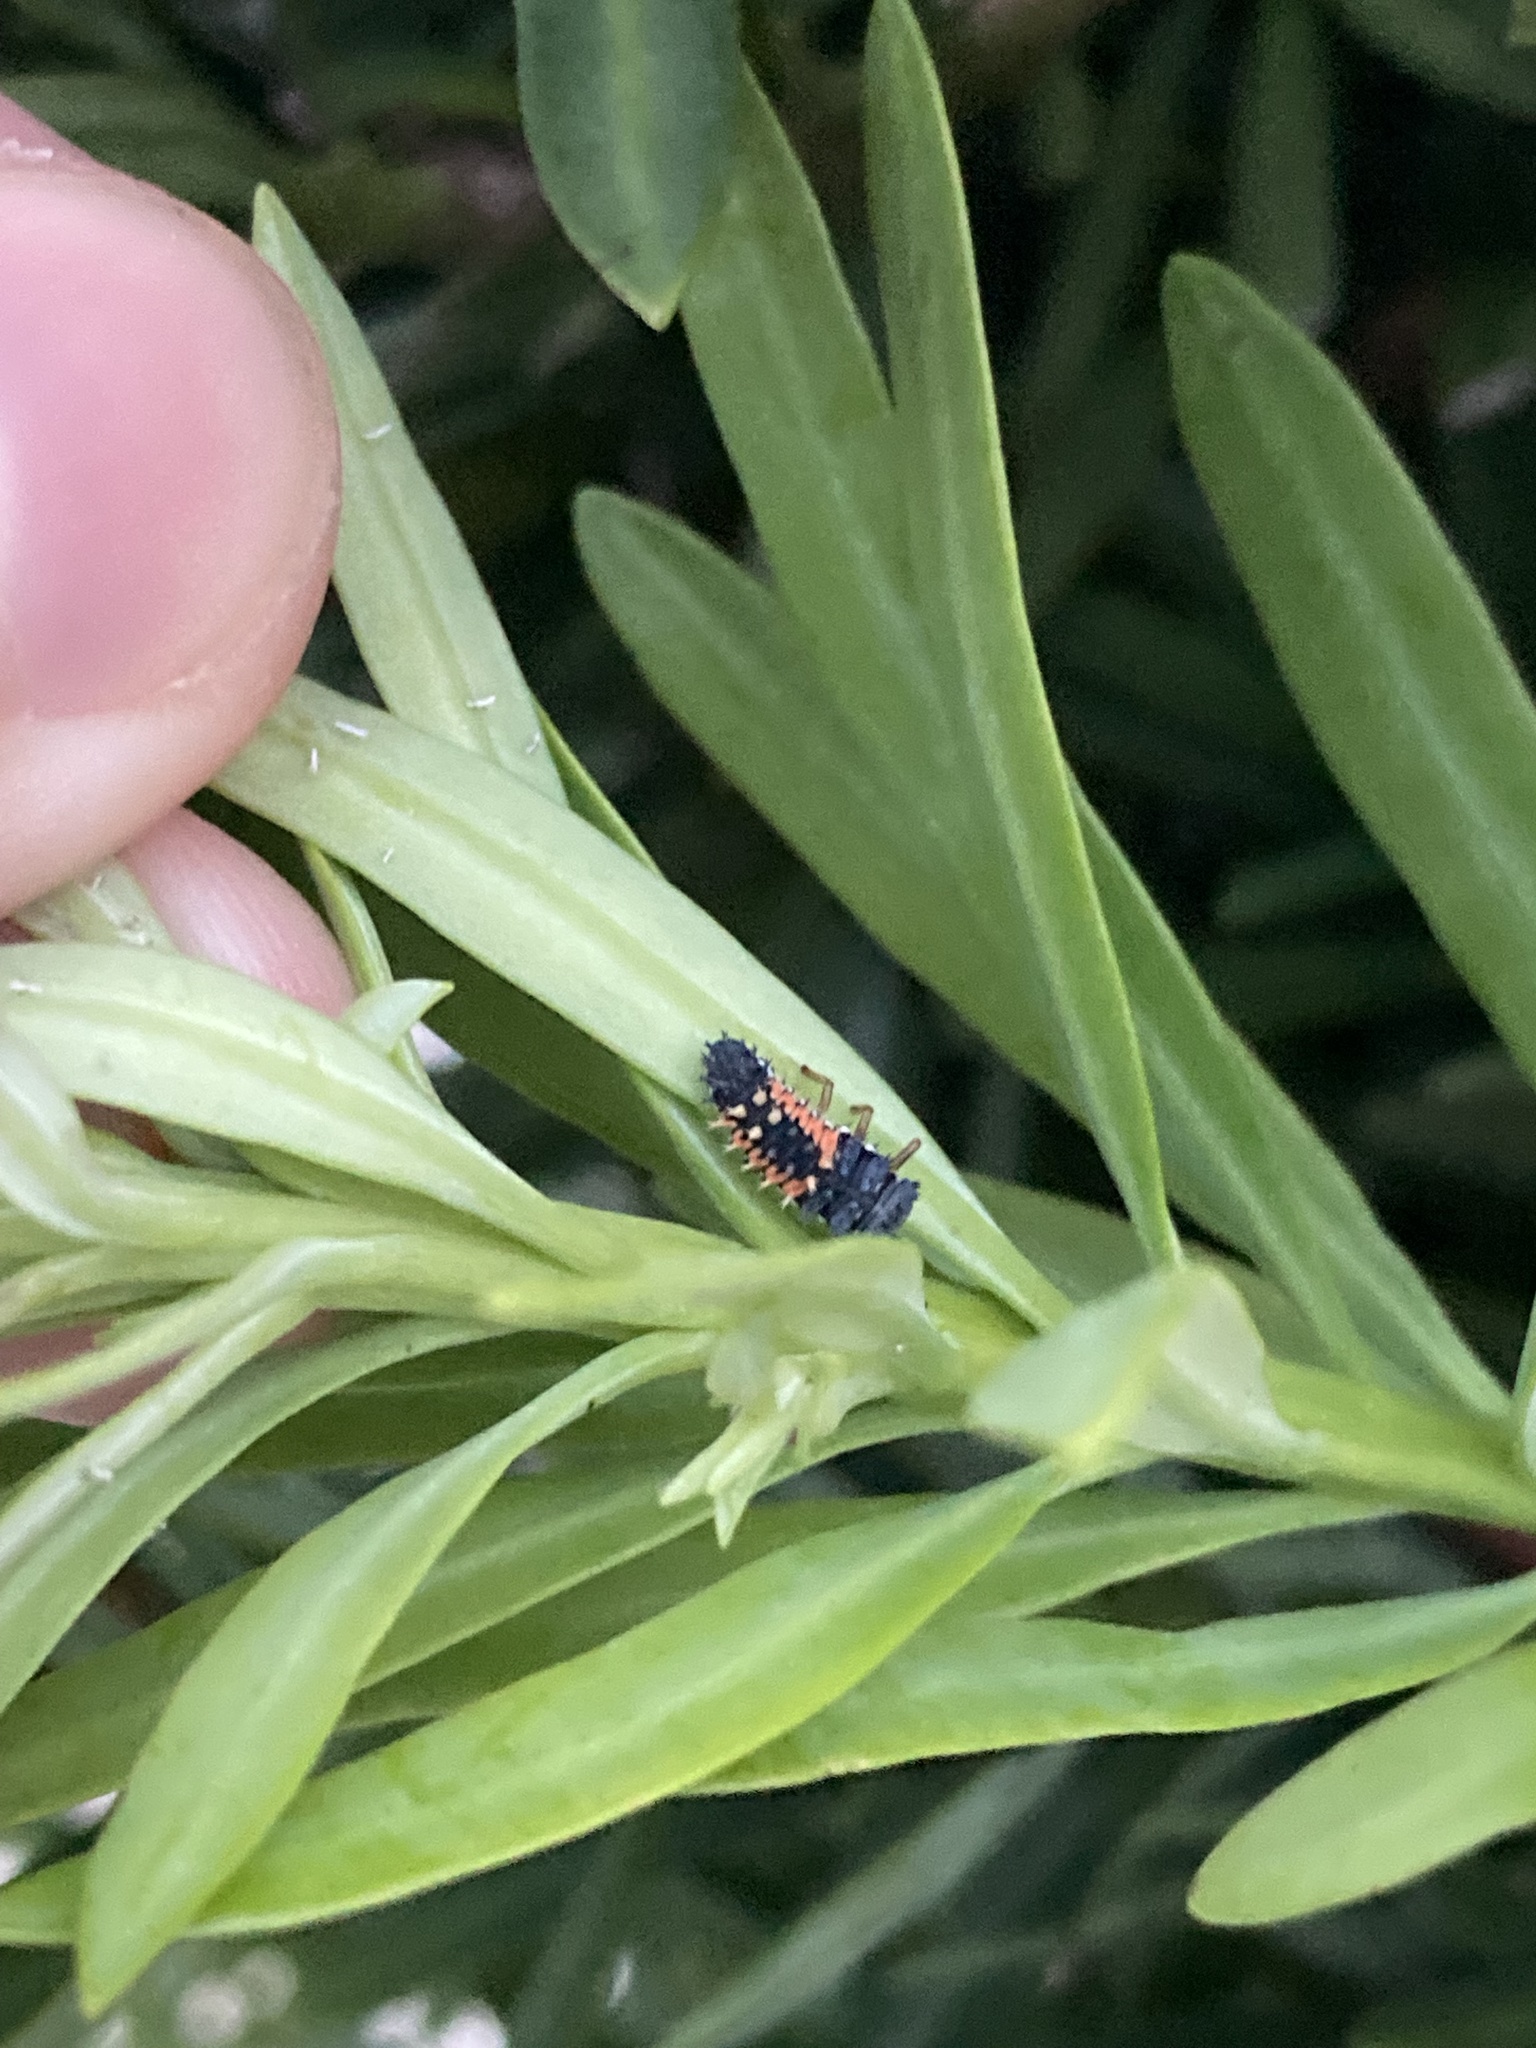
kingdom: Animalia
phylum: Arthropoda
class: Insecta
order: Coleoptera
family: Coccinellidae
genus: Harmonia
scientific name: Harmonia axyridis
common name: Harlequin ladybird
